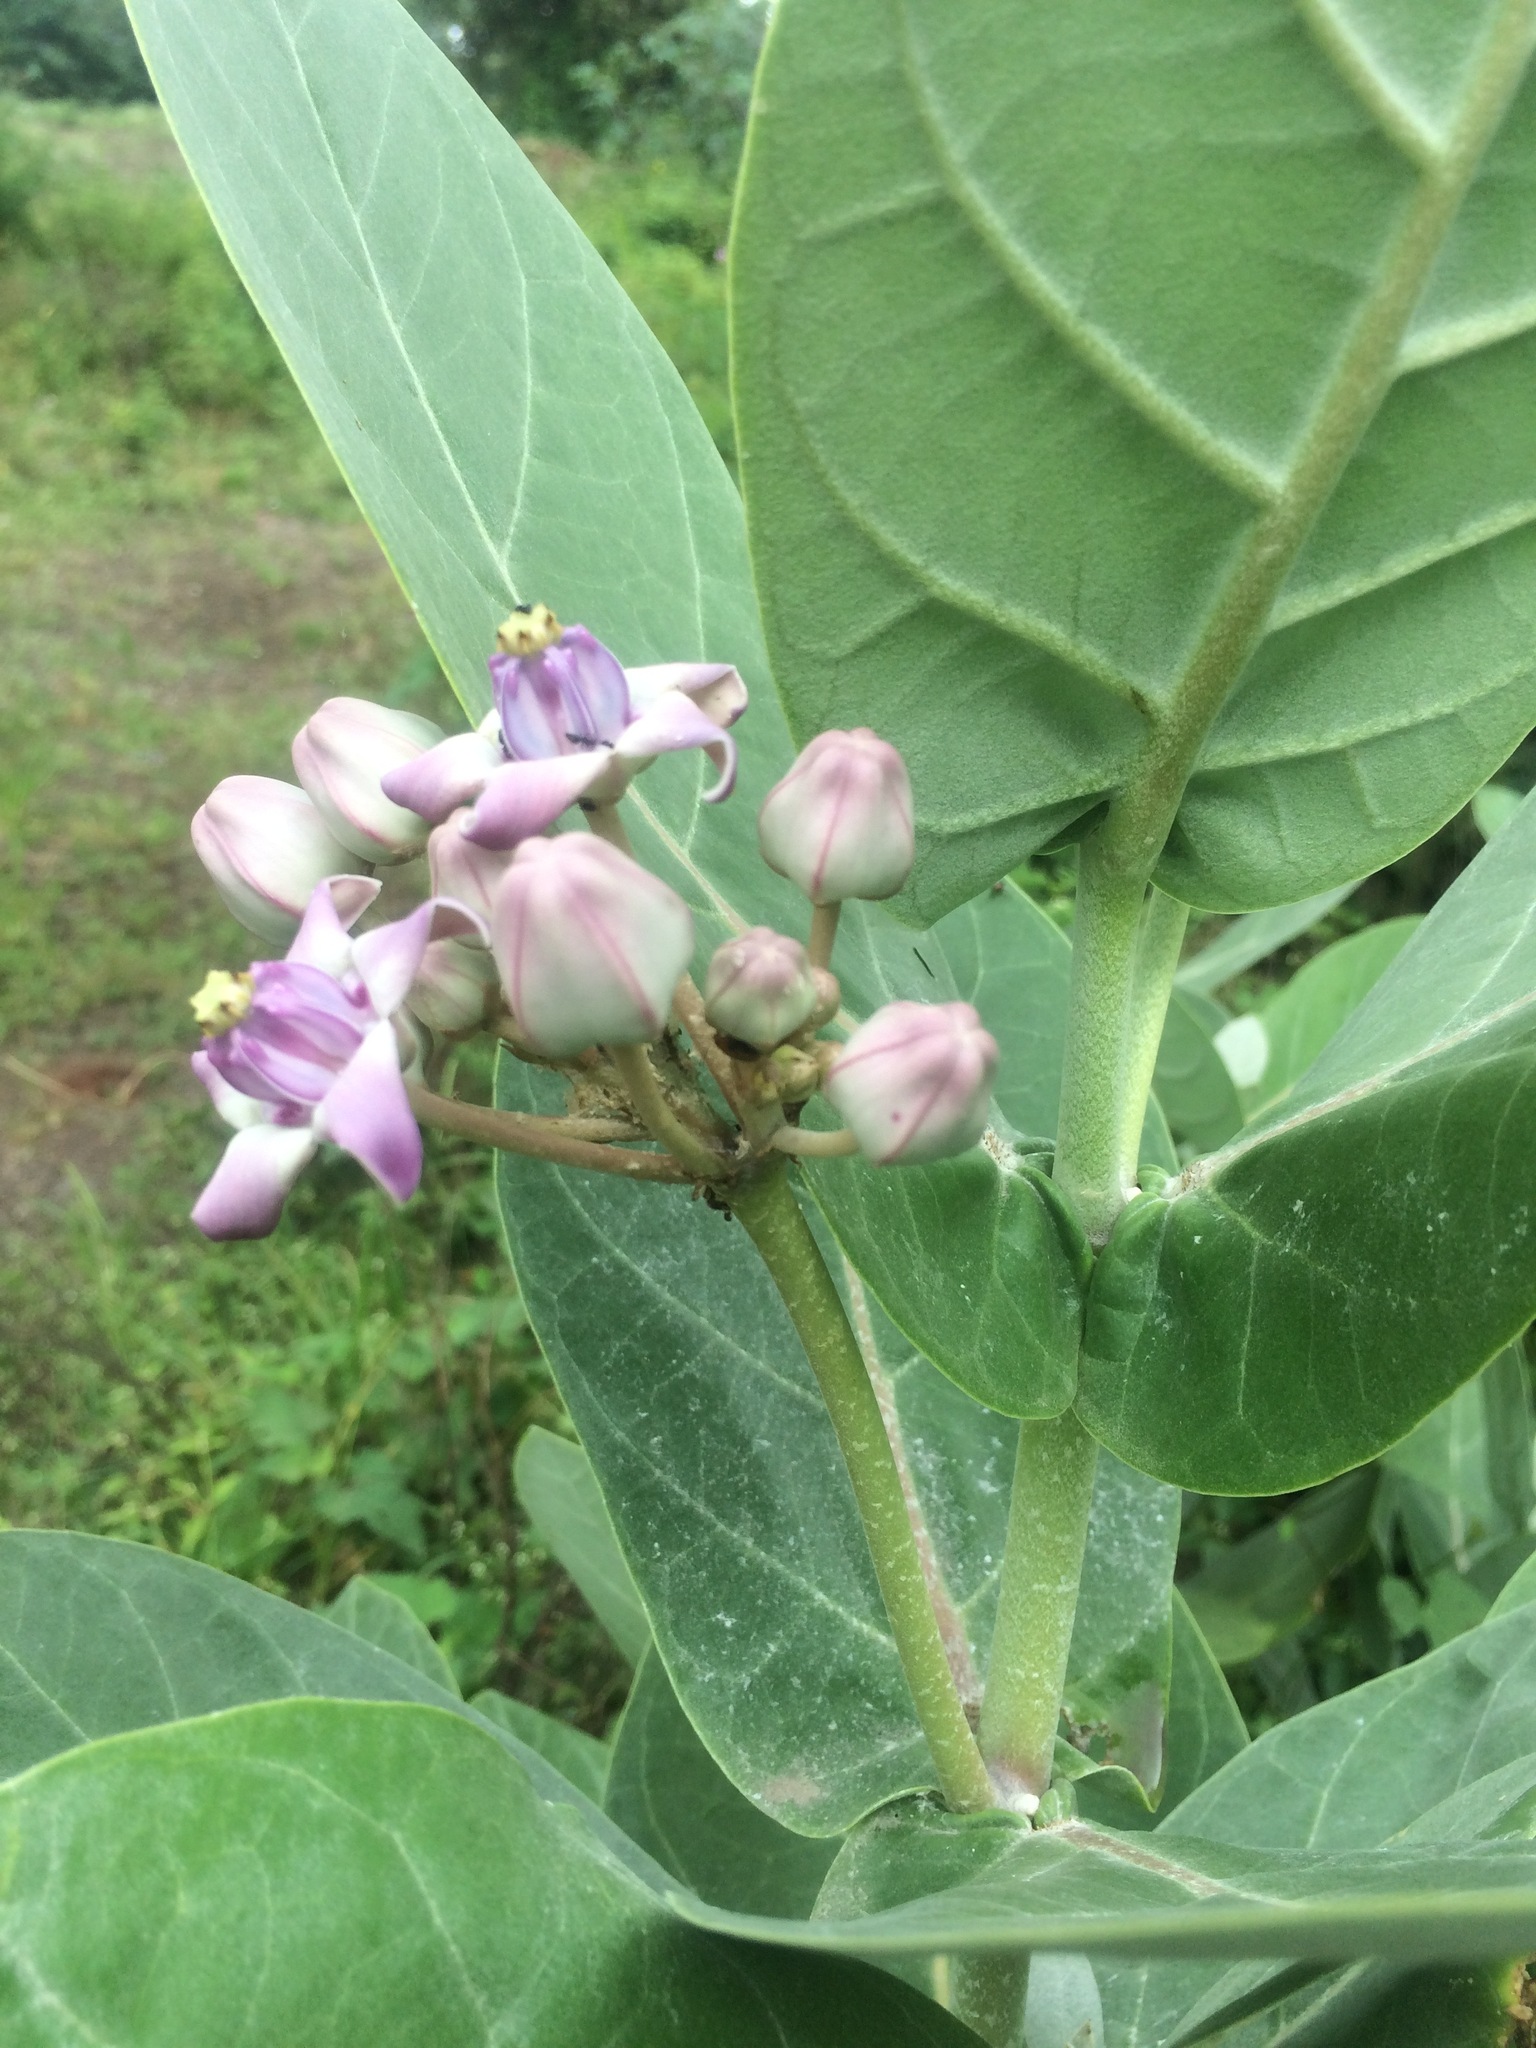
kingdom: Plantae
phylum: Tracheophyta
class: Magnoliopsida
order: Gentianales
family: Apocynaceae
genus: Calotropis
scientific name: Calotropis gigantea
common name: Crown flower
